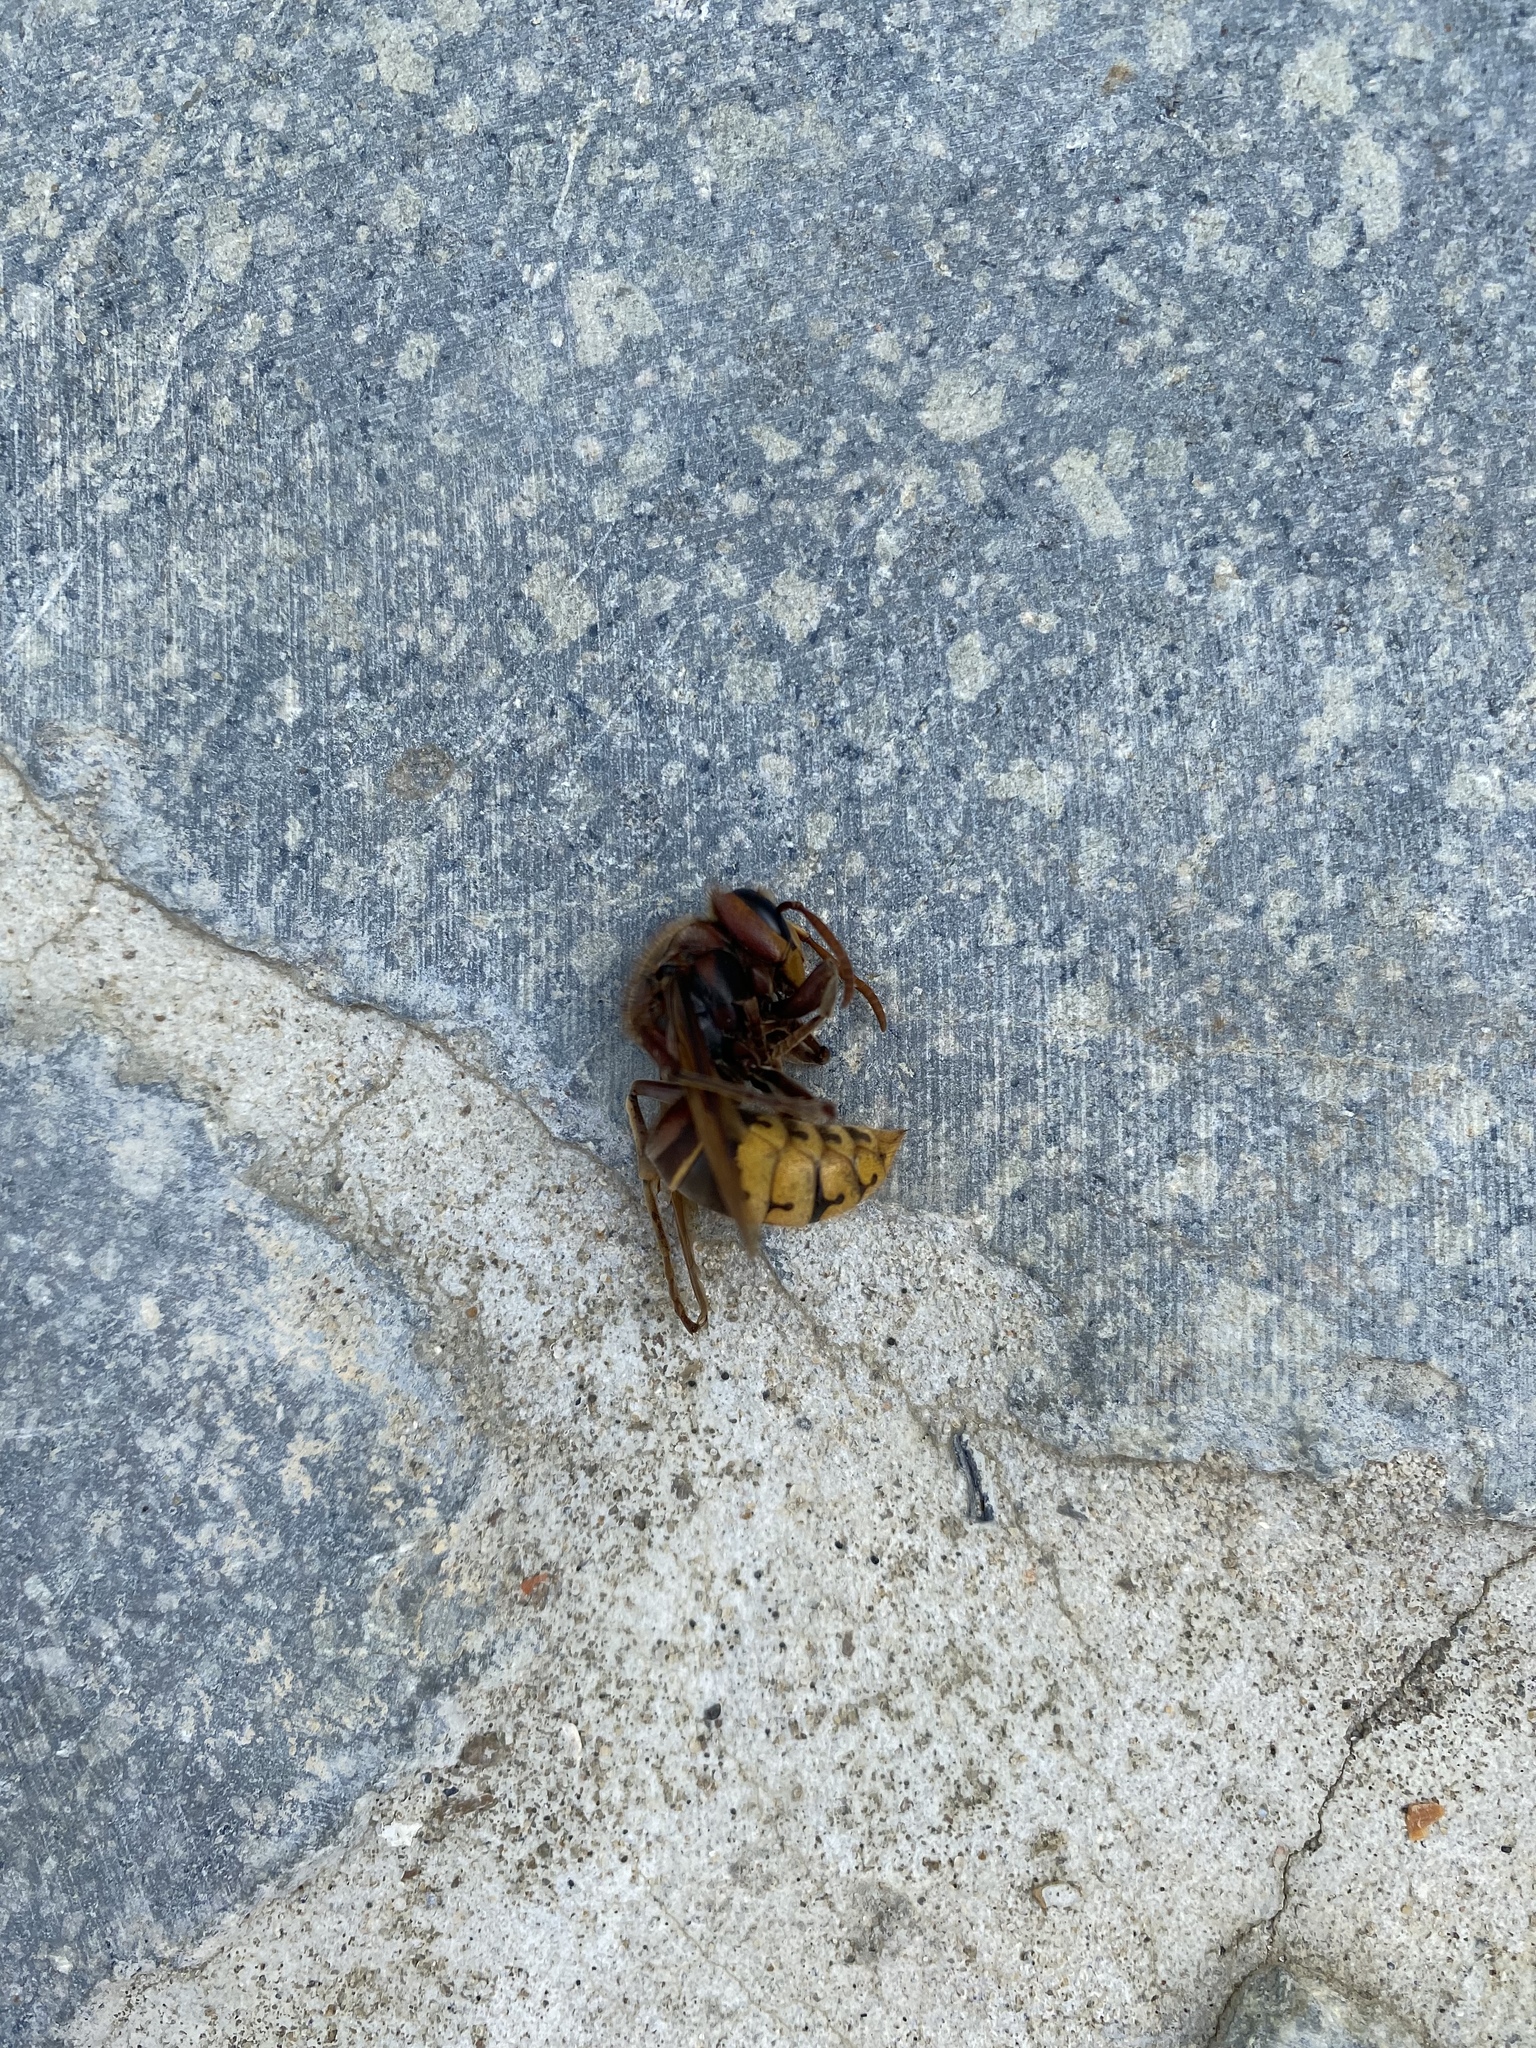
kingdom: Animalia
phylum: Arthropoda
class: Insecta
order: Hymenoptera
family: Vespidae
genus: Vespa
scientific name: Vespa crabro
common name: Hornet
